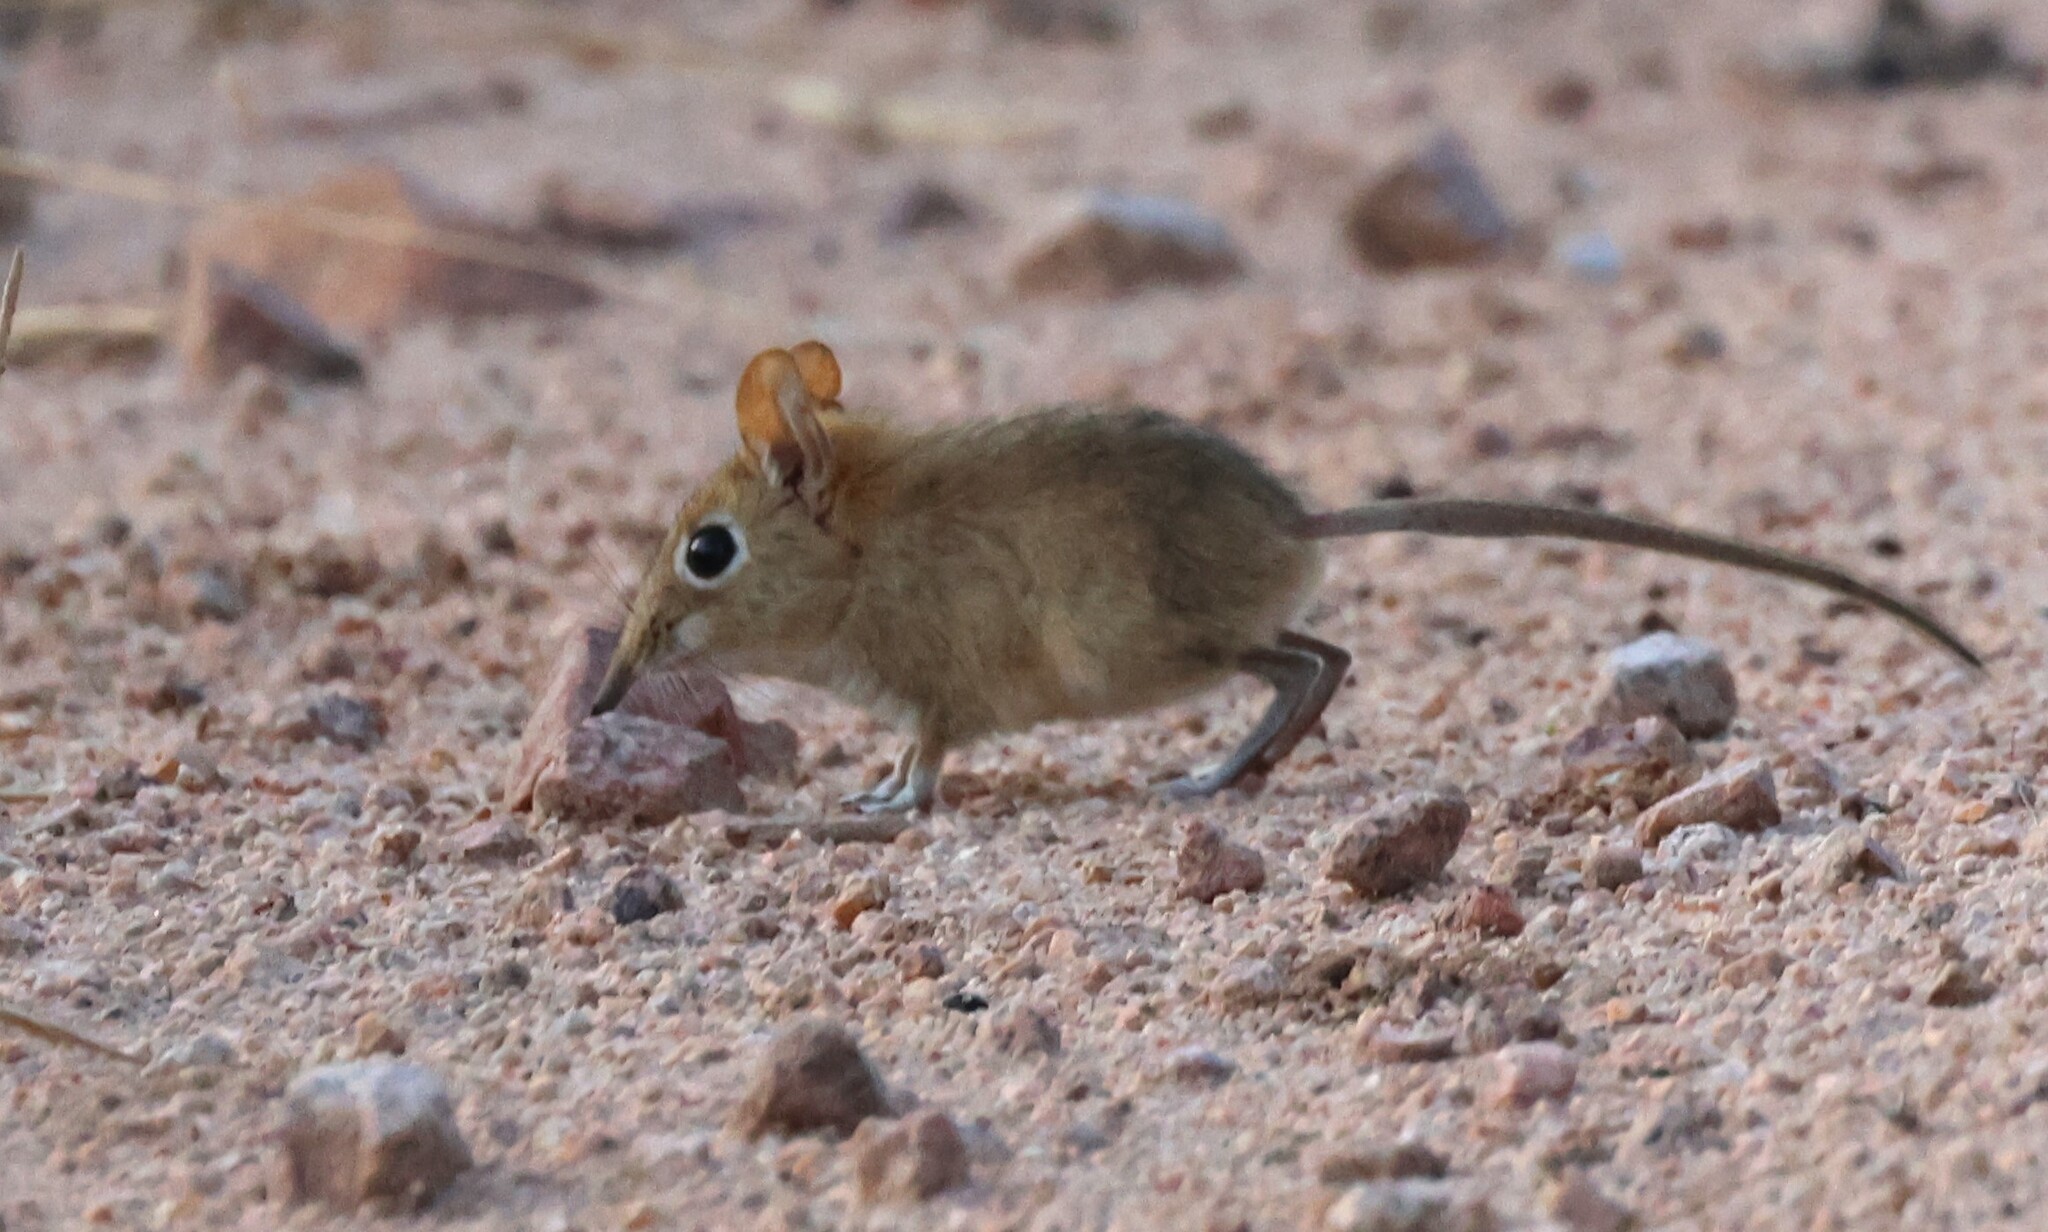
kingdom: Animalia
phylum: Chordata
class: Mammalia
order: Macroscelidea
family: Macroscelididae
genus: Elephantulus
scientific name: Elephantulus intufi
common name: Bushveld elephant shrew
